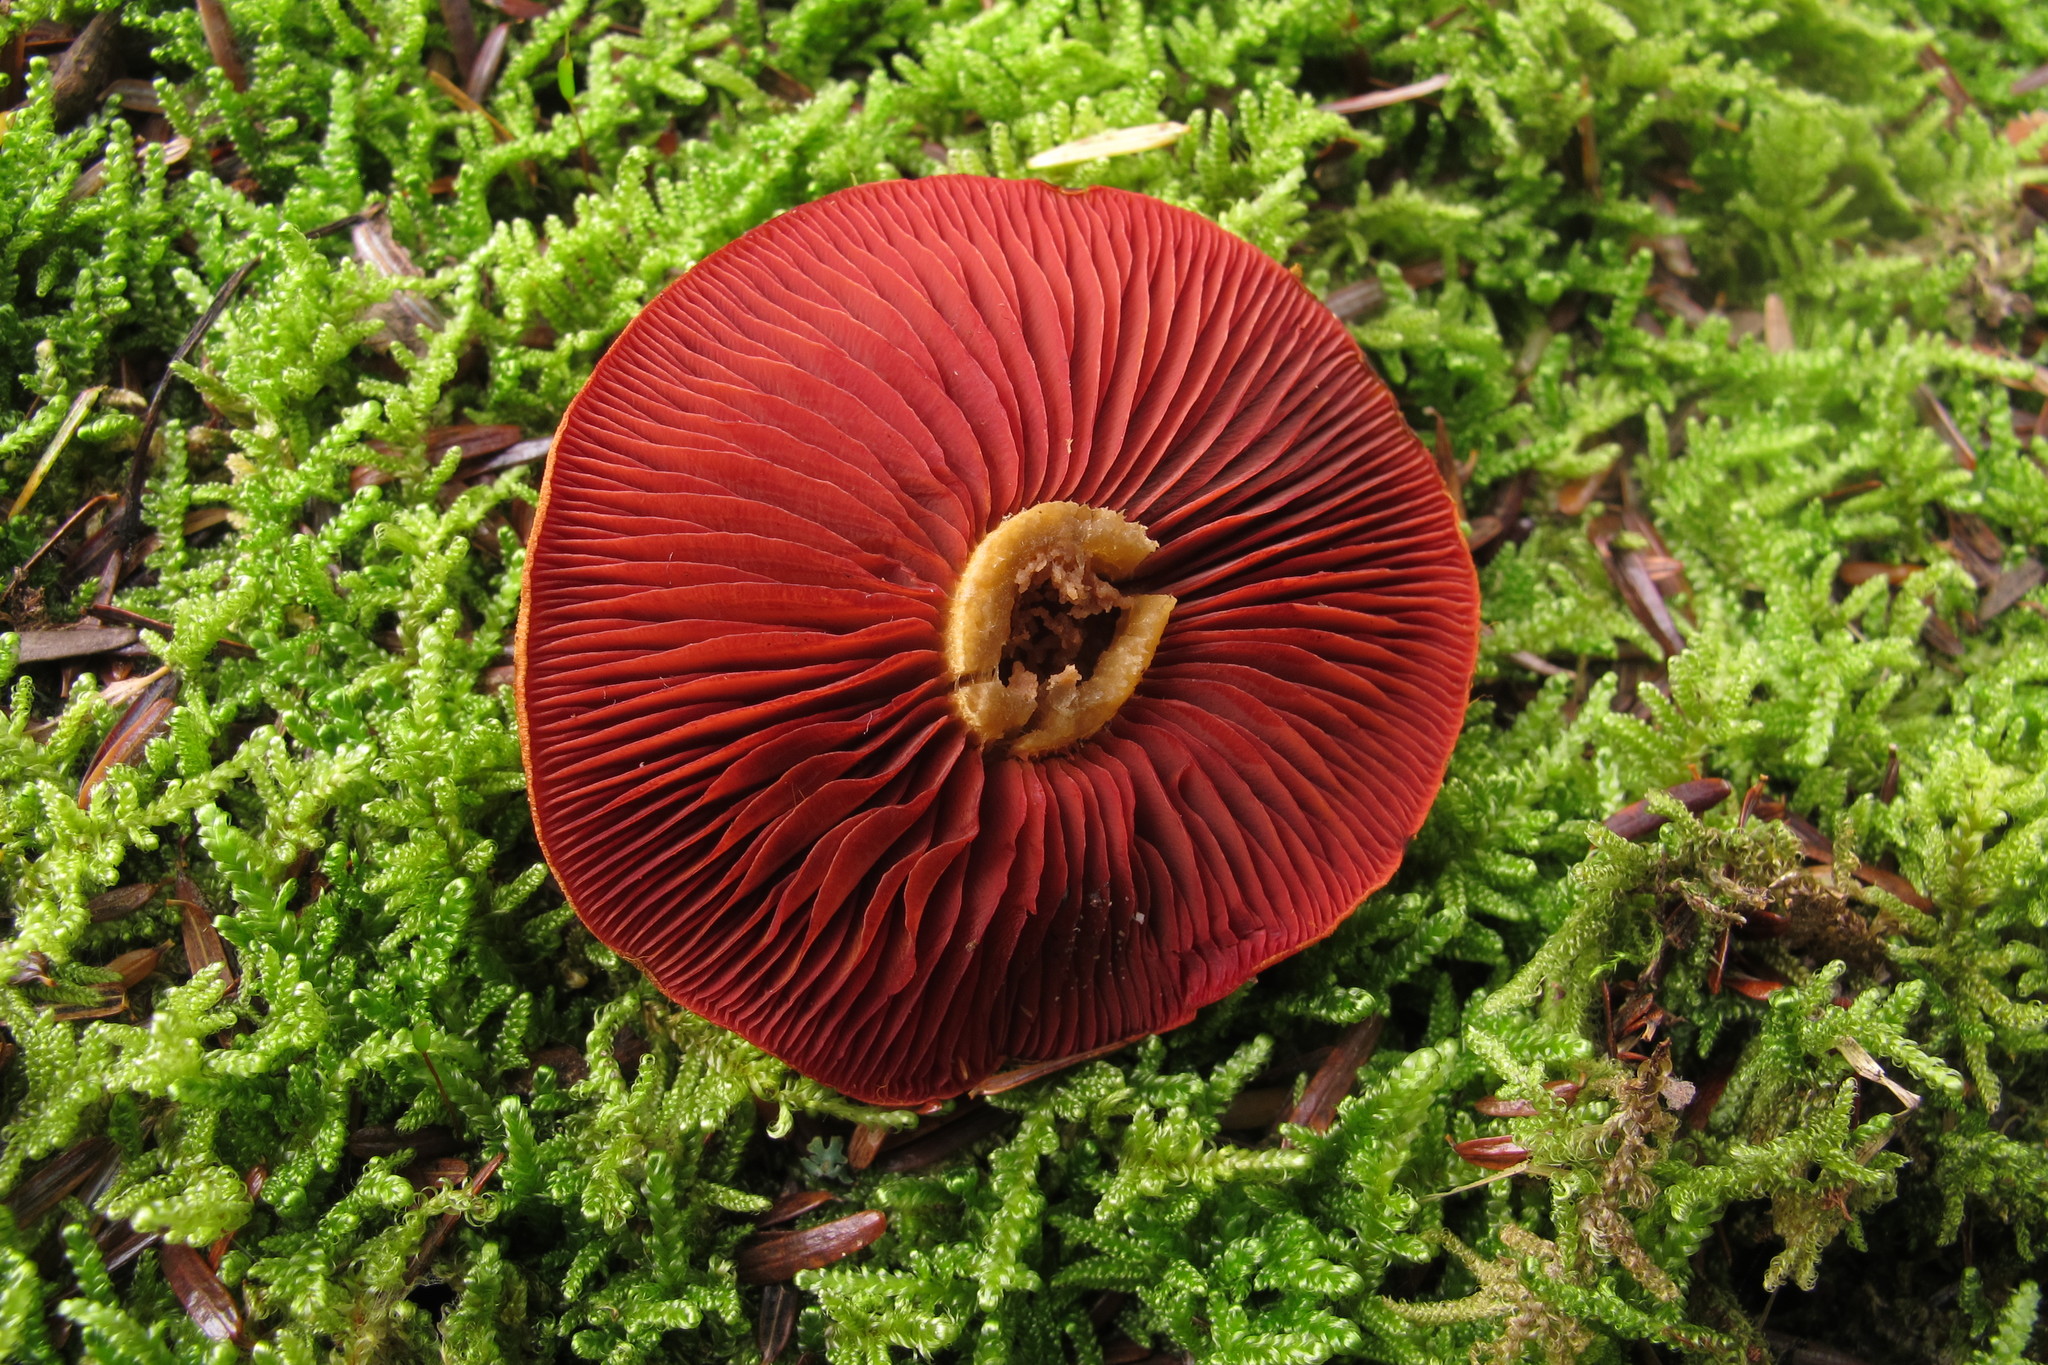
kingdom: Fungi
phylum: Basidiomycota
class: Agaricomycetes
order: Agaricales
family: Cortinariaceae
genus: Cortinarius
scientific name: Cortinarius semisanguineus
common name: Surprise webcap
